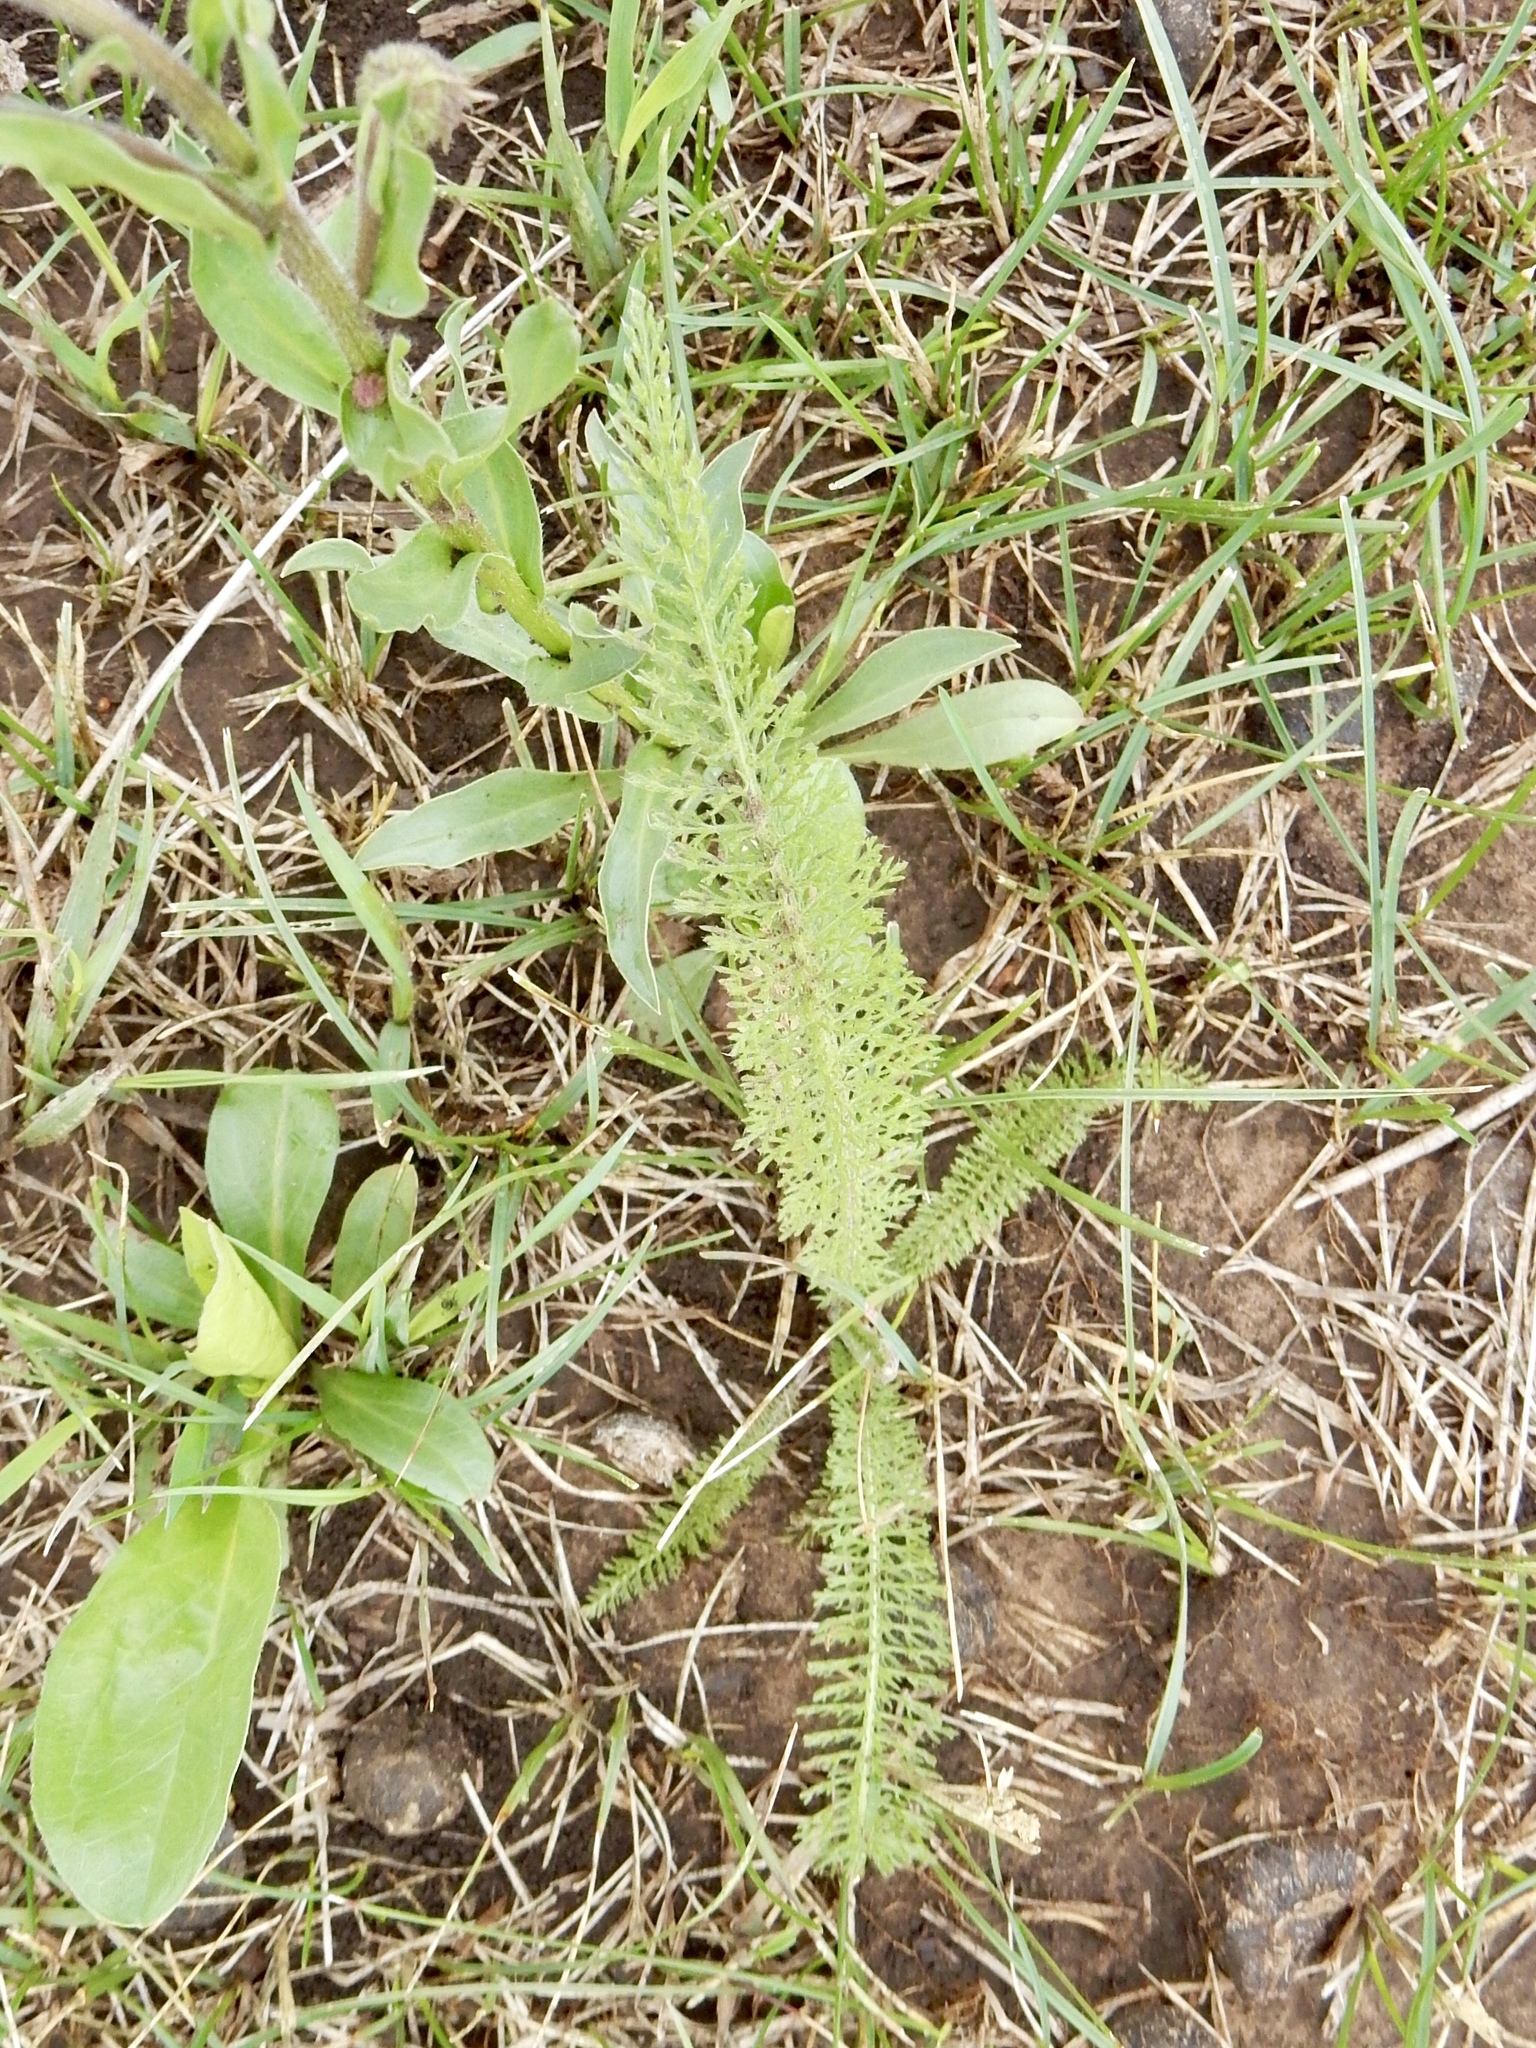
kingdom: Plantae
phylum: Tracheophyta
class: Magnoliopsida
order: Asterales
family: Asteraceae
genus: Achillea
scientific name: Achillea millefolium
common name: Yarrow
